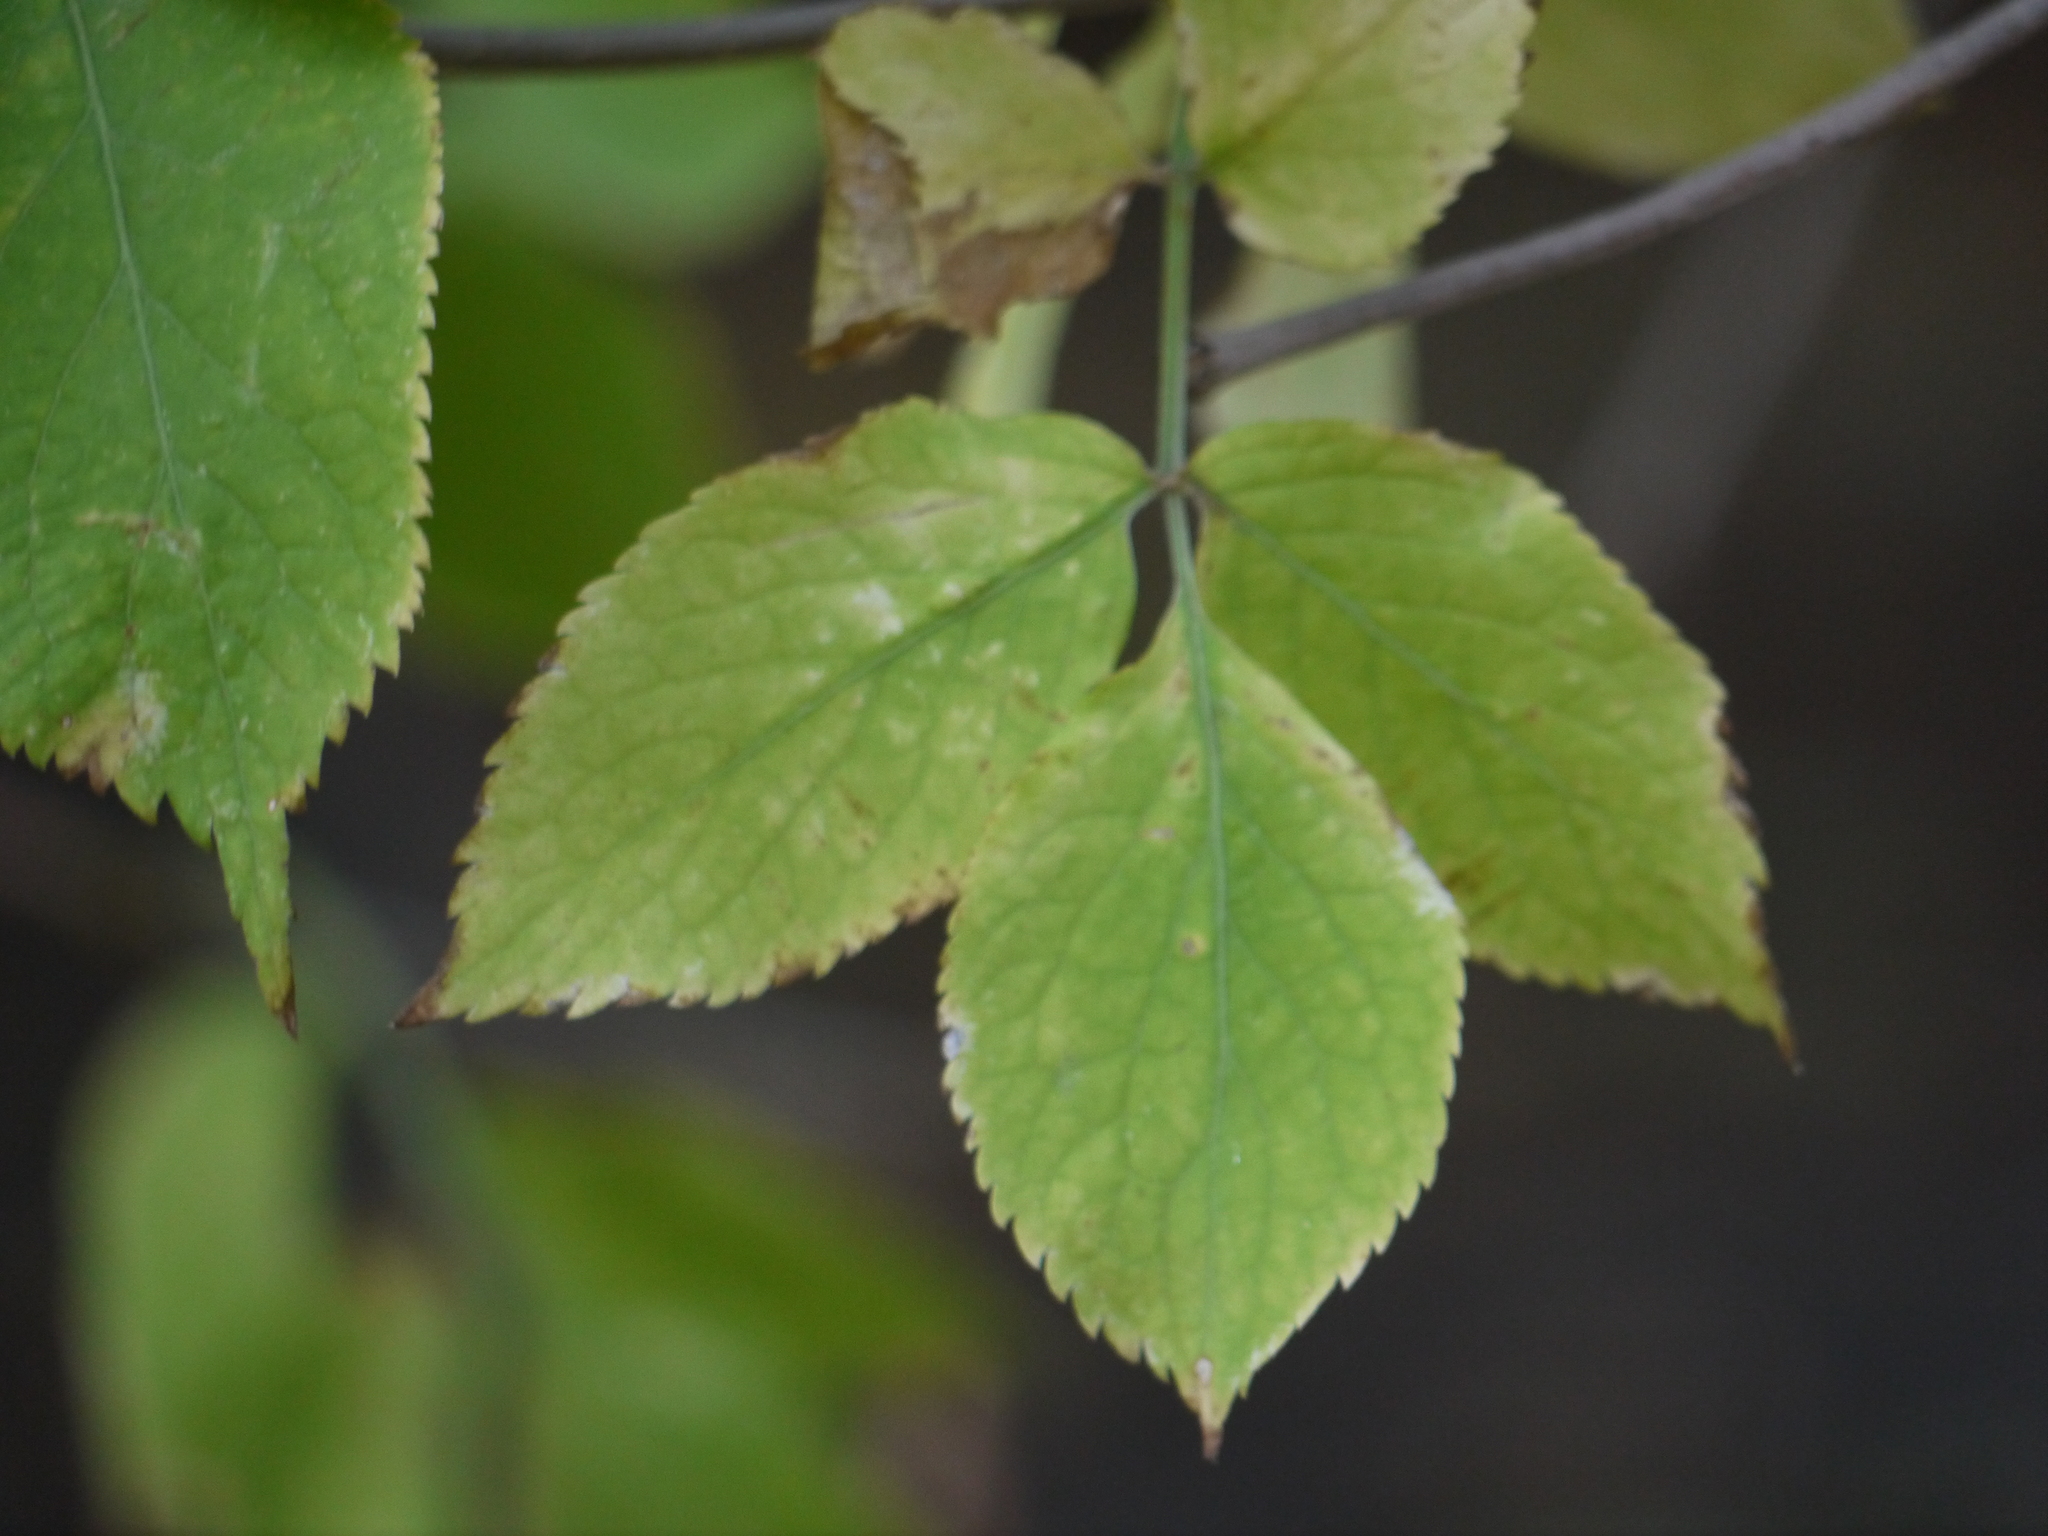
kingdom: Plantae
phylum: Tracheophyta
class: Magnoliopsida
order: Dipsacales
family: Viburnaceae
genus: Sambucus
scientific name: Sambucus nigra
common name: Elder
